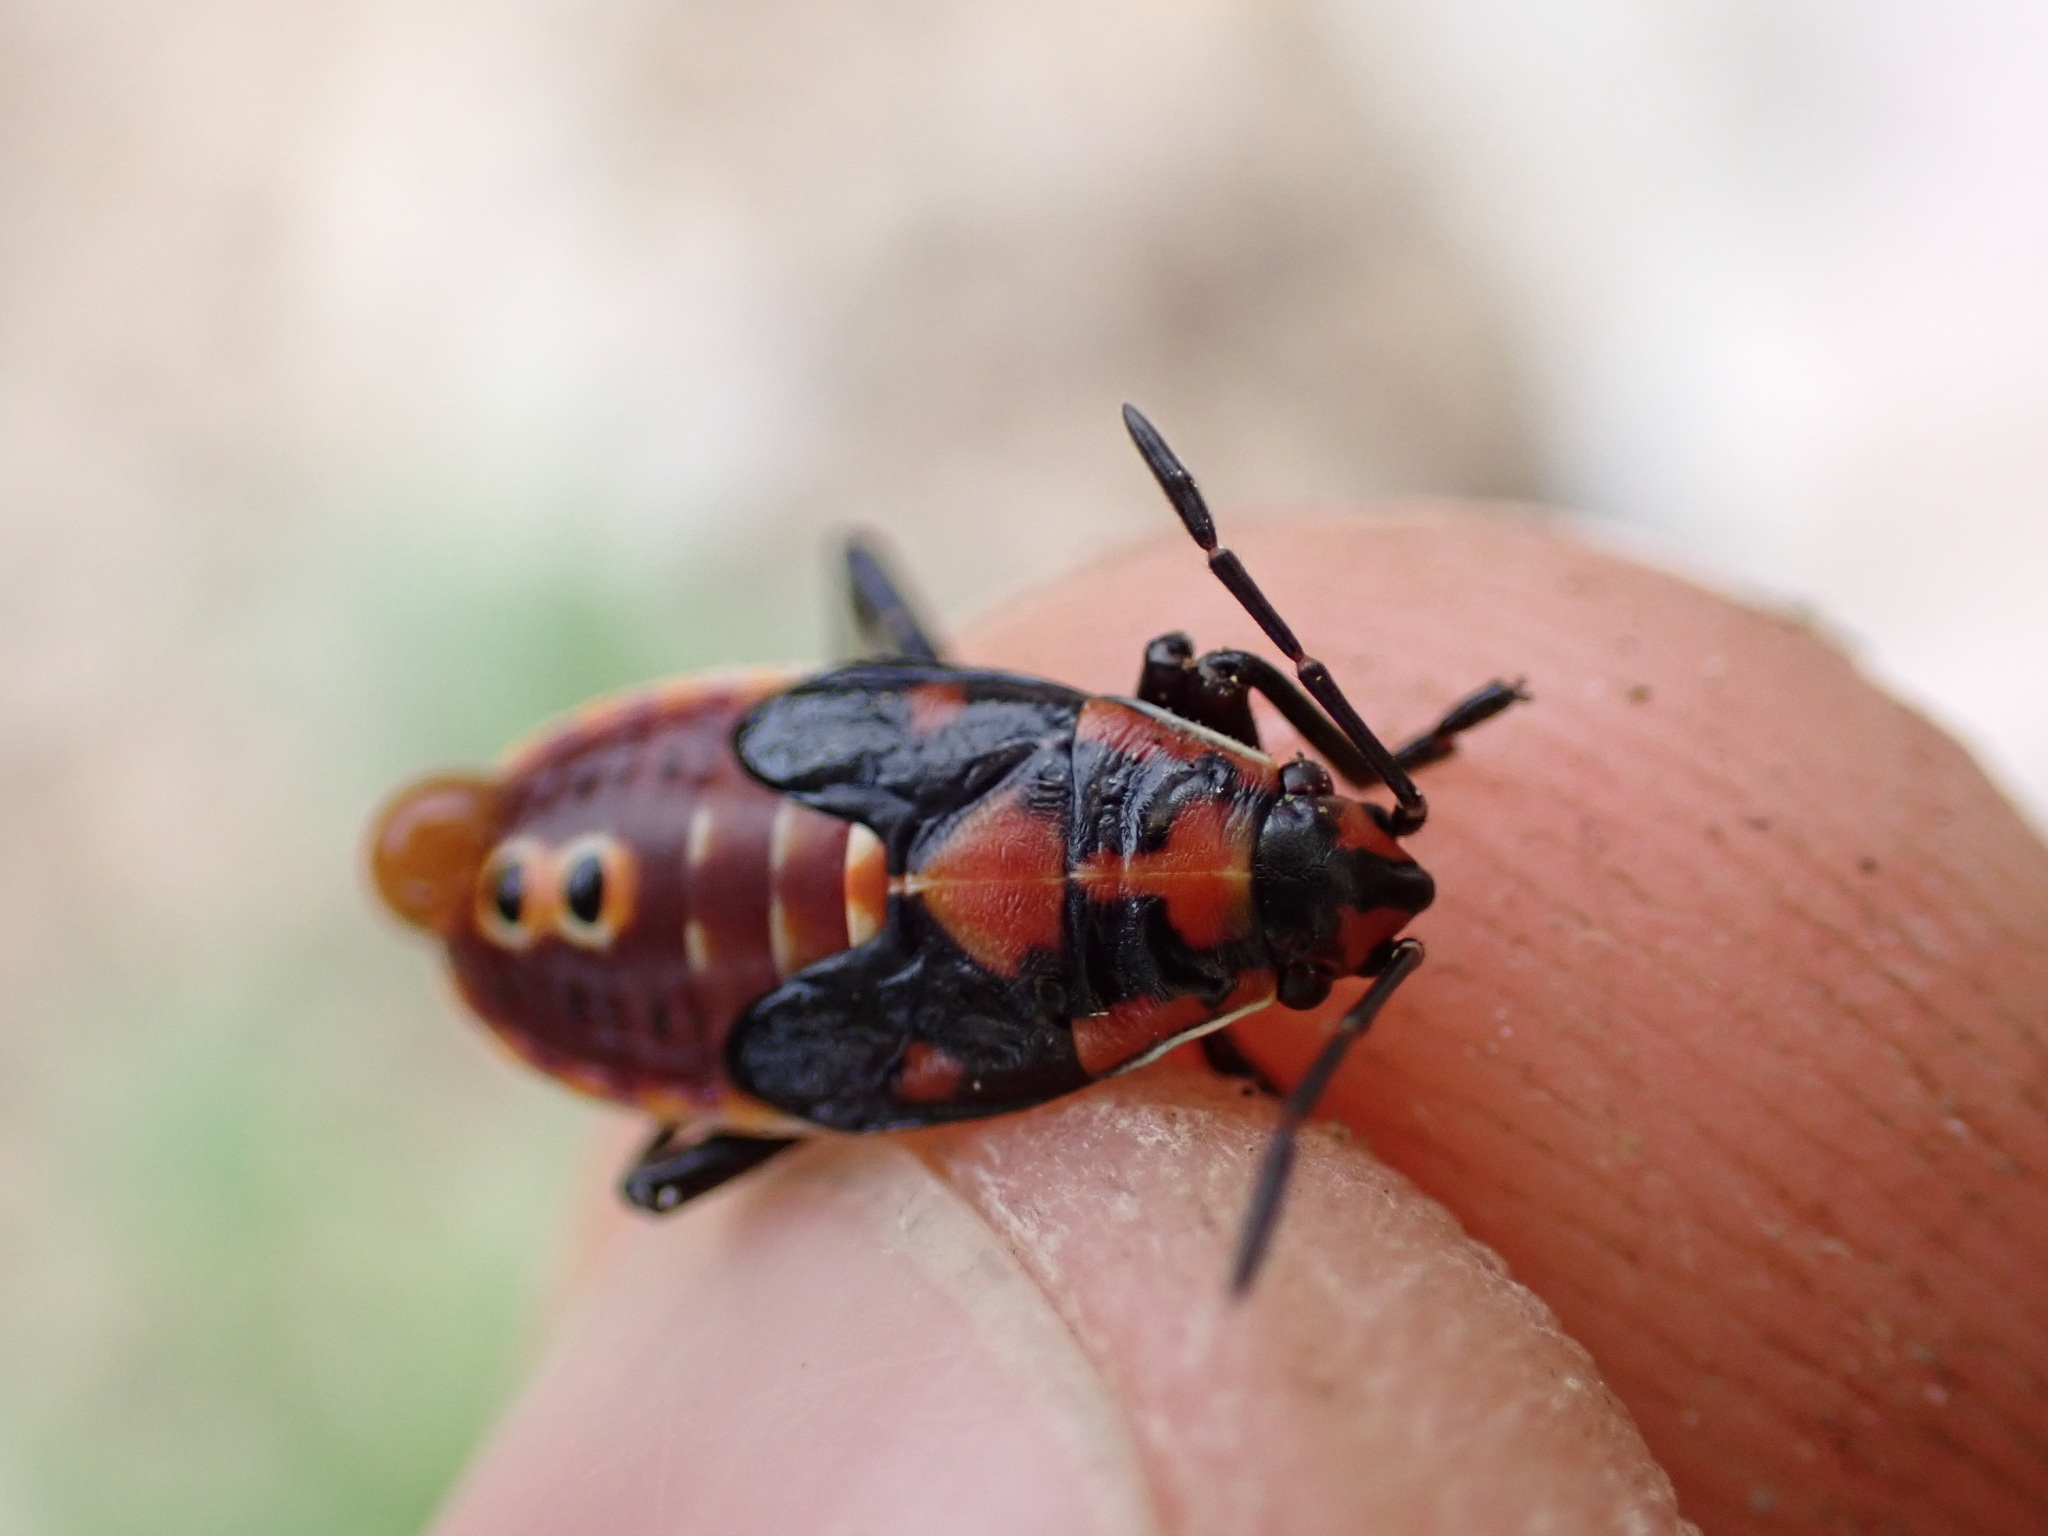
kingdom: Animalia
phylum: Arthropoda
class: Insecta
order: Hemiptera
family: Lygaeidae
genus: Spilostethus
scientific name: Spilostethus pandurus
